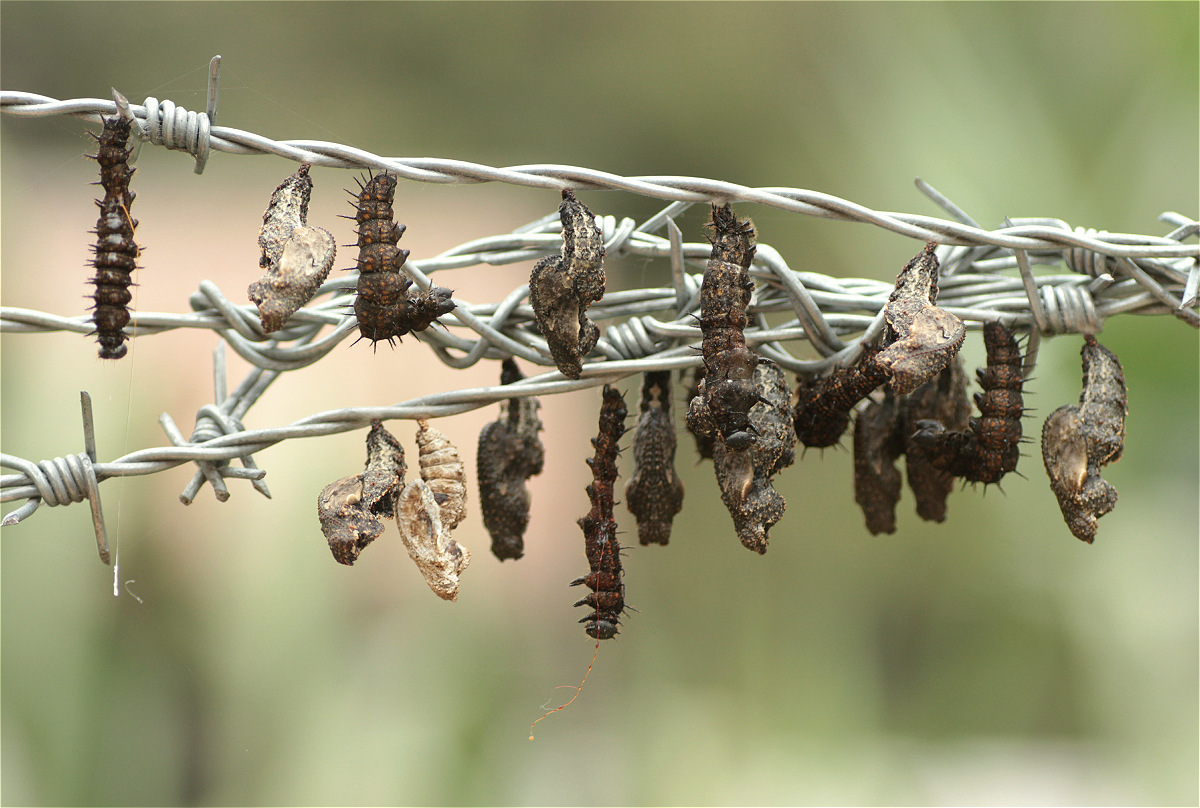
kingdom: Animalia
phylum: Arthropoda
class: Insecta
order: Lepidoptera
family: Nymphalidae
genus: Dione
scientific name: Dione juno
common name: Juno silverspot
